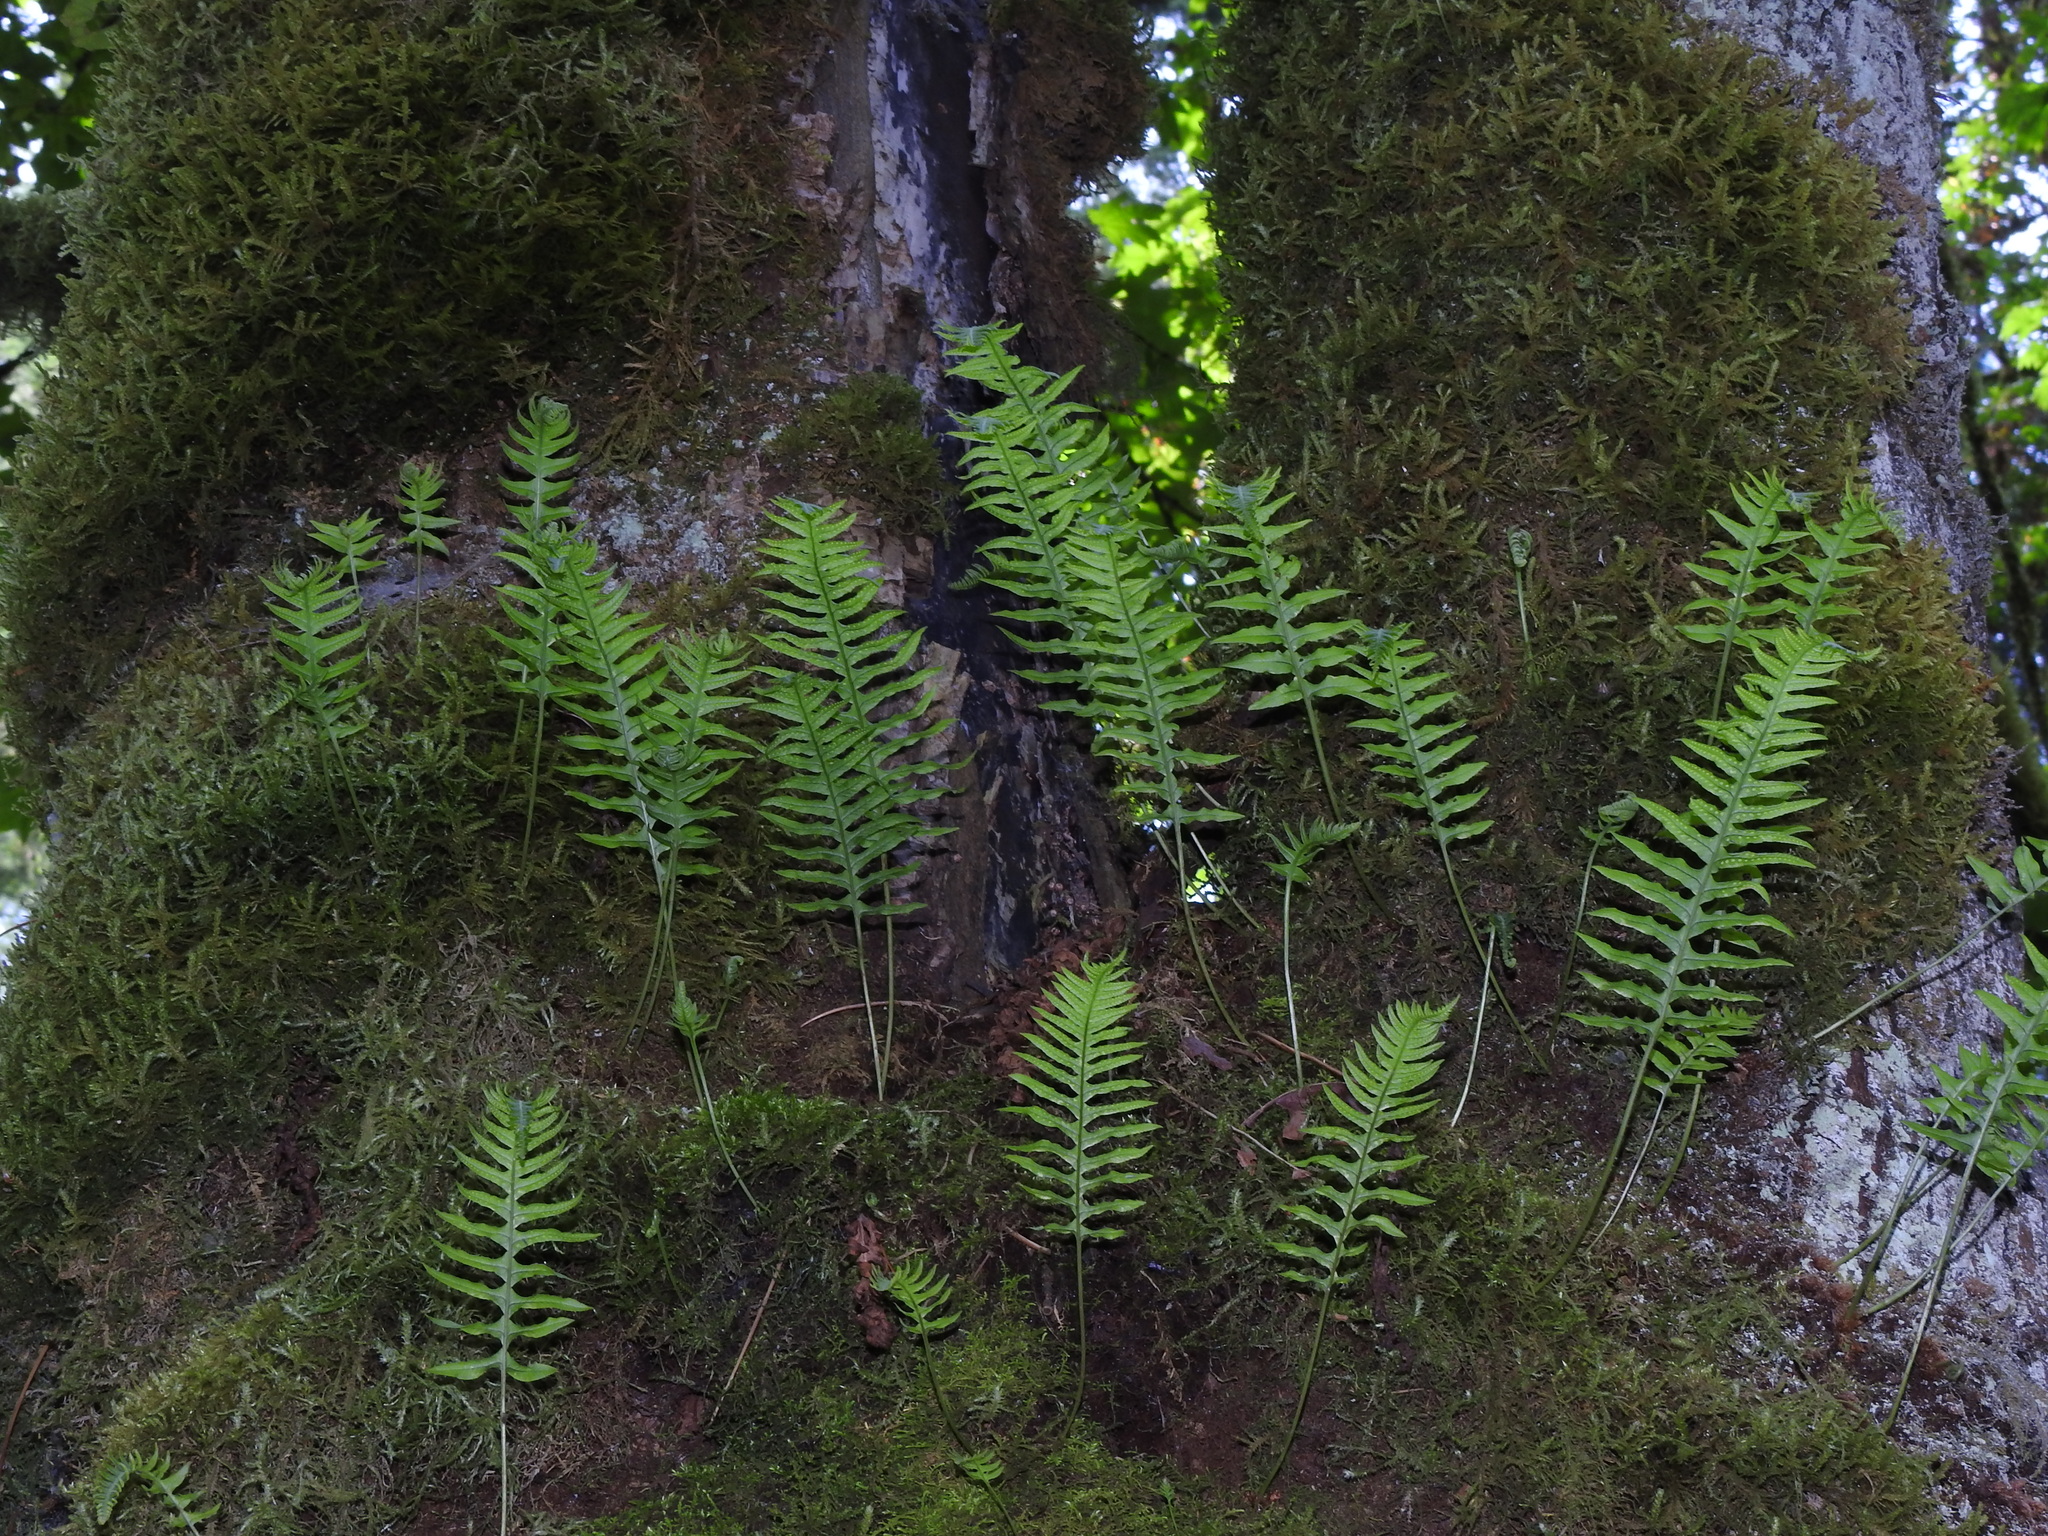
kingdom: Plantae
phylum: Tracheophyta
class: Polypodiopsida
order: Polypodiales
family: Polypodiaceae
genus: Polypodium
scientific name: Polypodium glycyrrhiza
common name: Licorice fern
